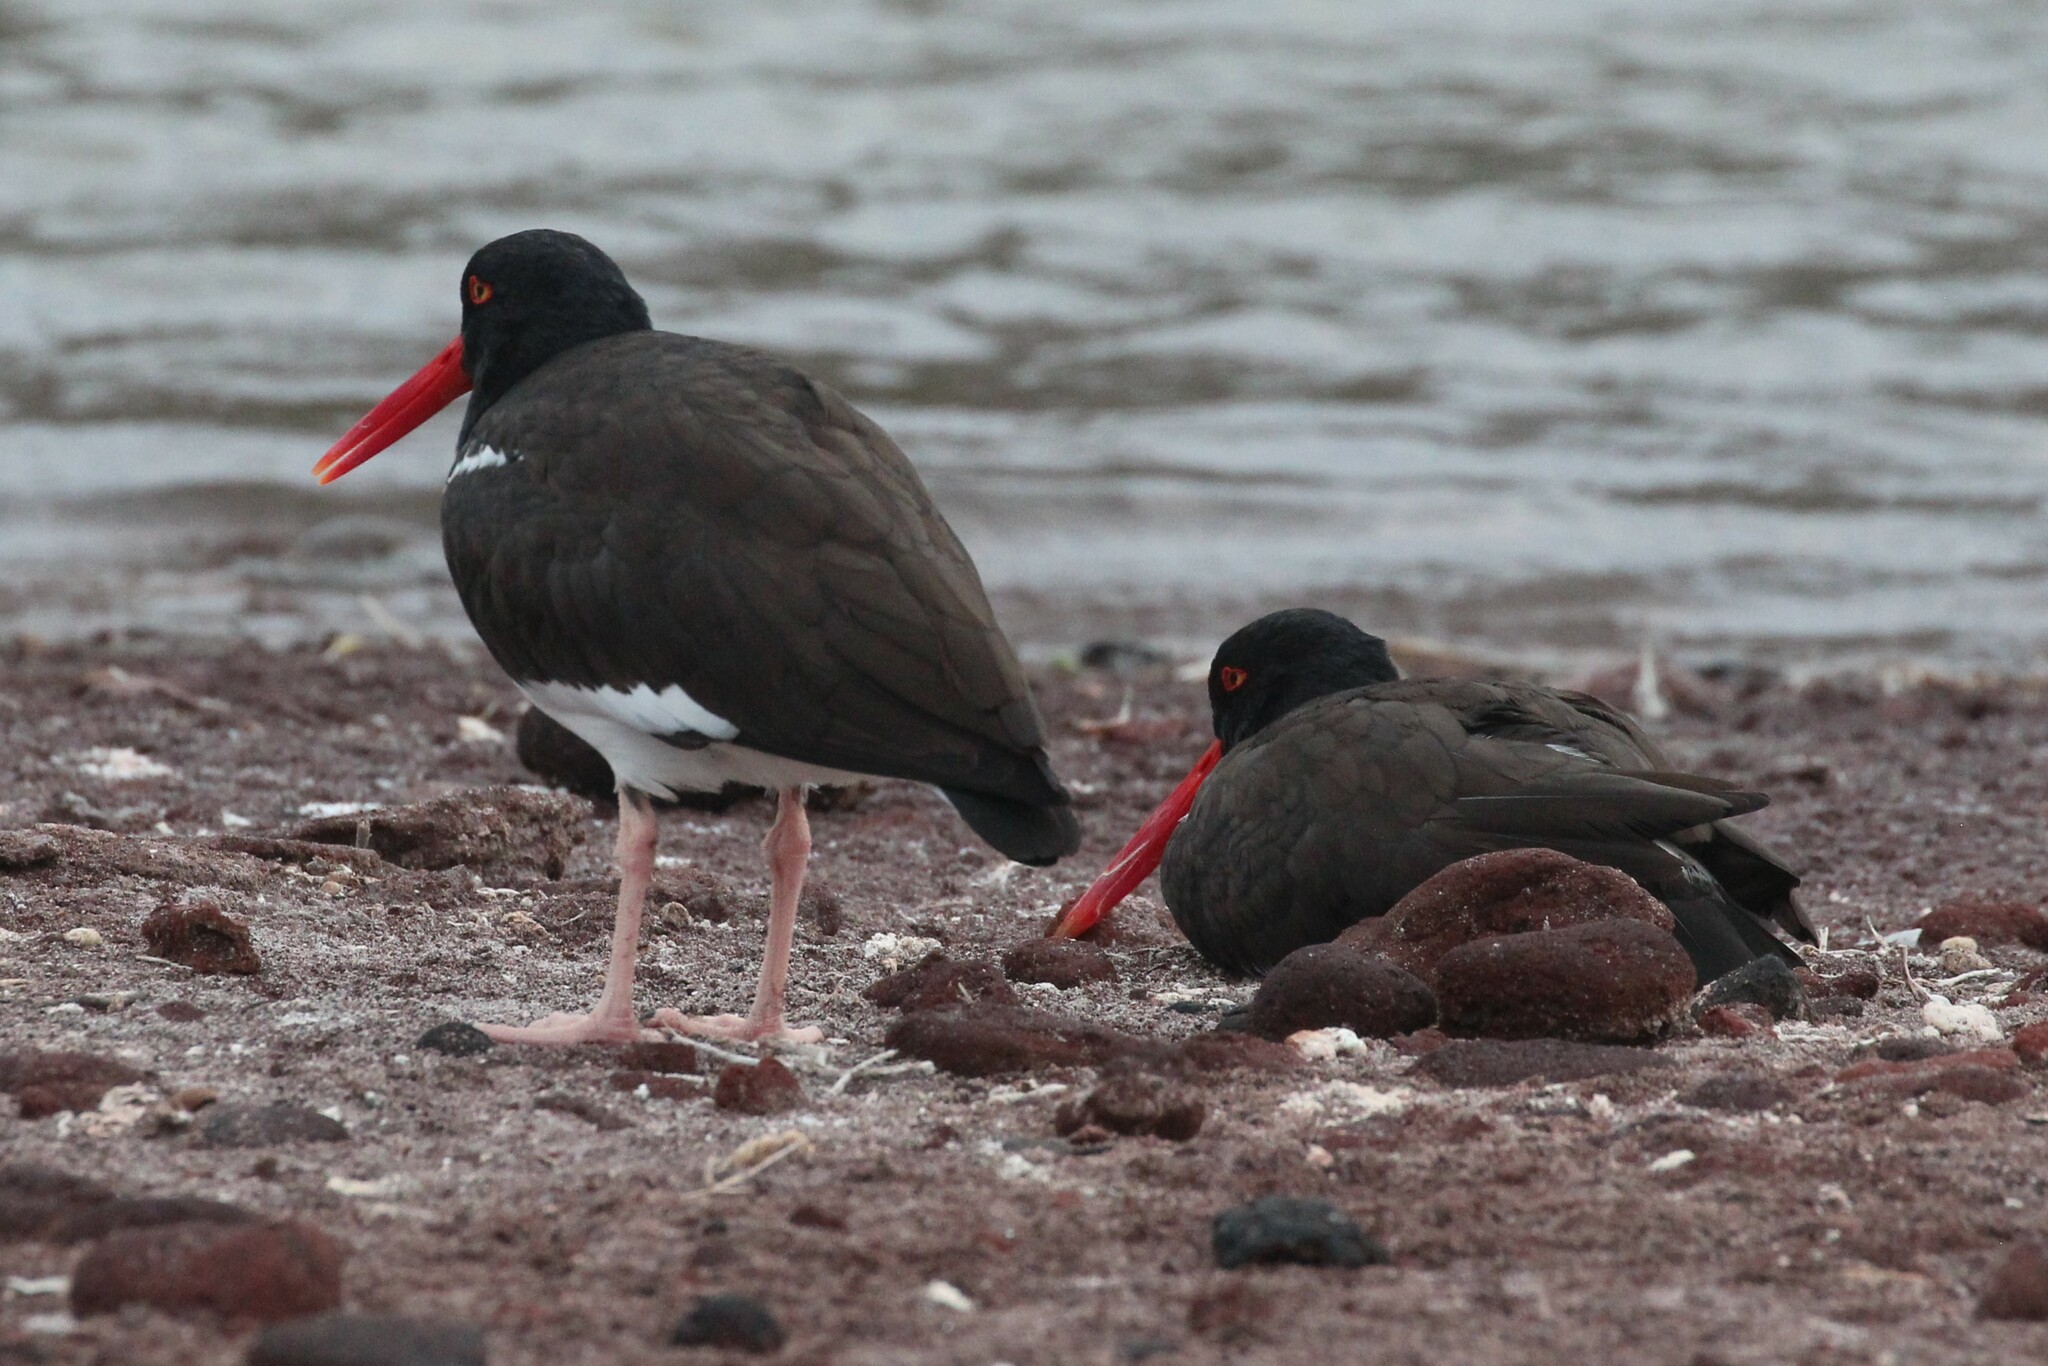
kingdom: Animalia
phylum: Chordata
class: Aves
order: Charadriiformes
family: Haematopodidae
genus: Haematopus
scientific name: Haematopus palliatus
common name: American oystercatcher
